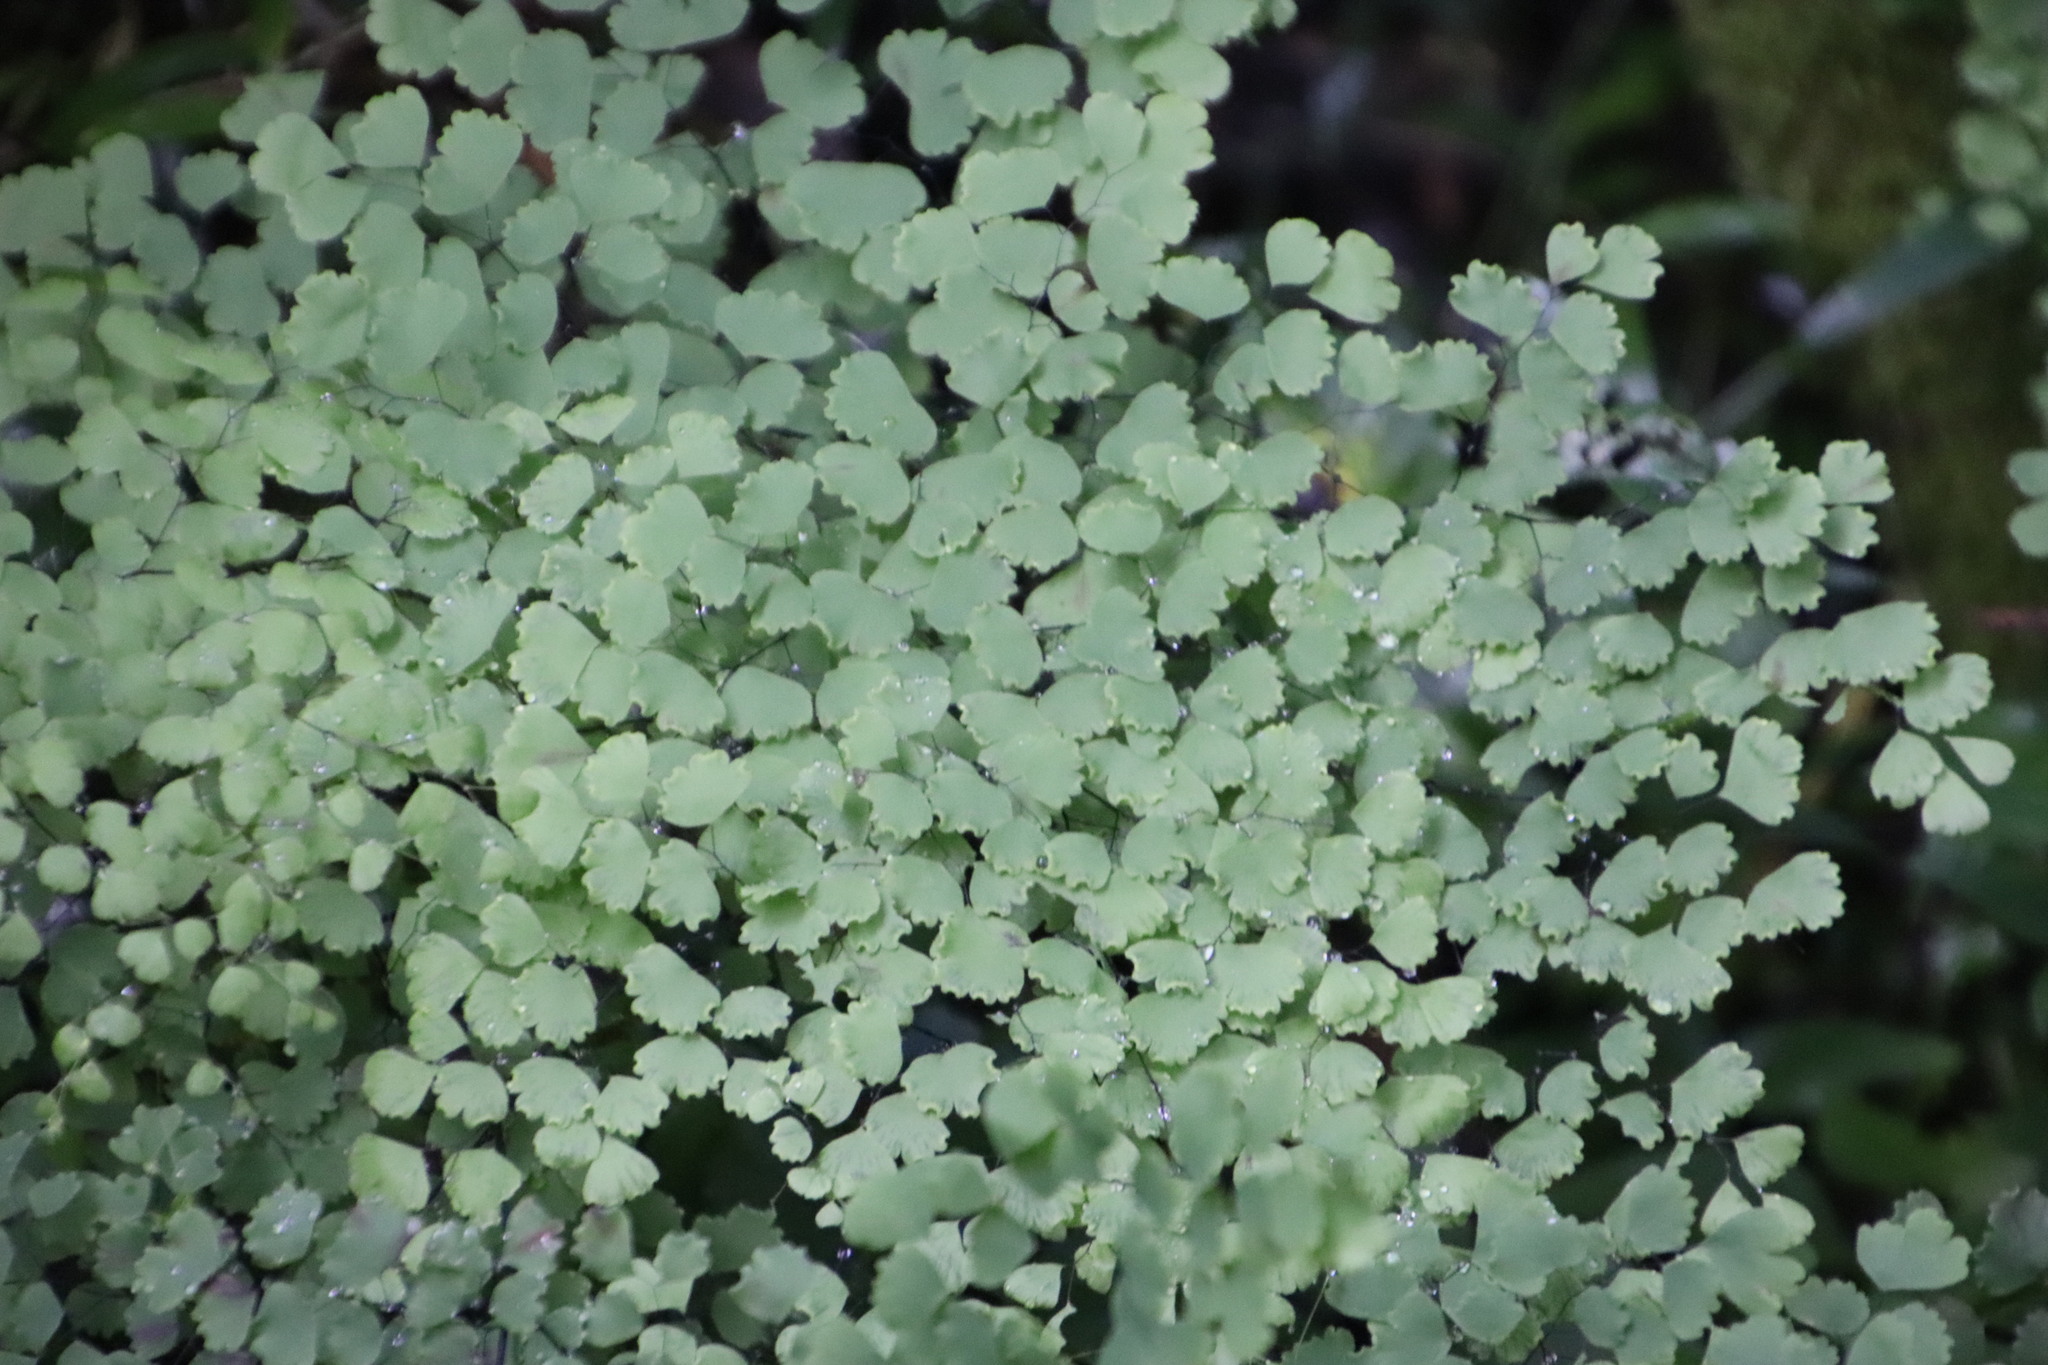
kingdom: Plantae
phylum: Tracheophyta
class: Polypodiopsida
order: Polypodiales
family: Pteridaceae
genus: Adiantum
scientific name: Adiantum poiretii
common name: Mexican maidenhair
